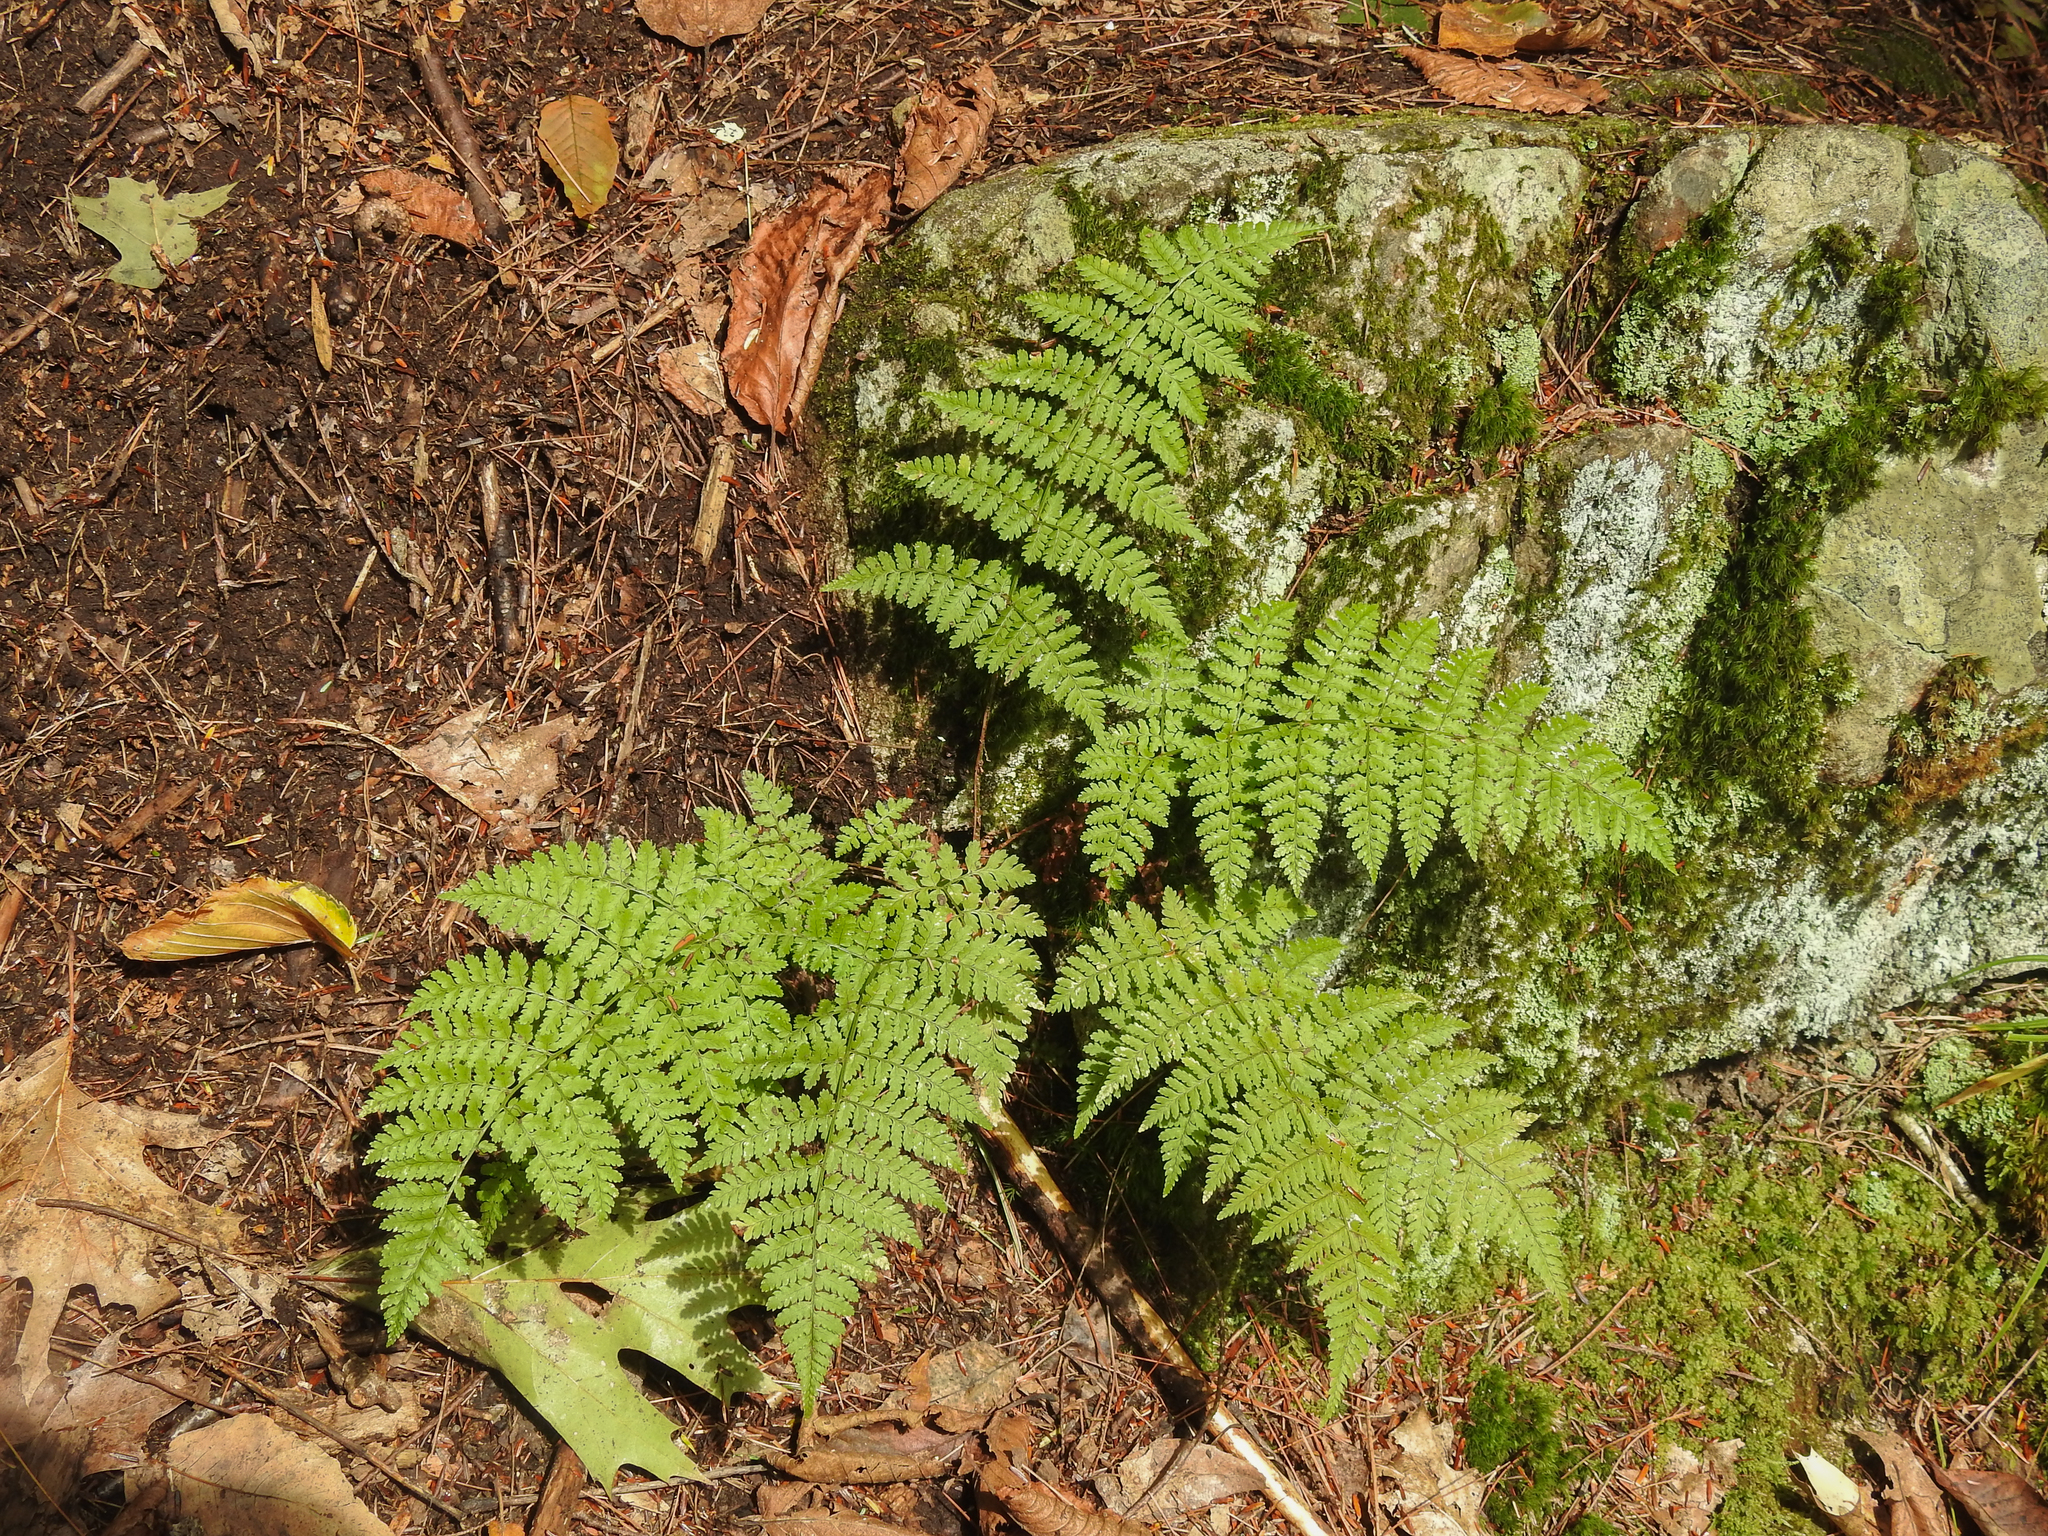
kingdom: Plantae
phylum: Tracheophyta
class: Polypodiopsida
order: Polypodiales
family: Dryopteridaceae
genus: Dryopteris
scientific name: Dryopteris intermedia
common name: Evergreen wood fern
